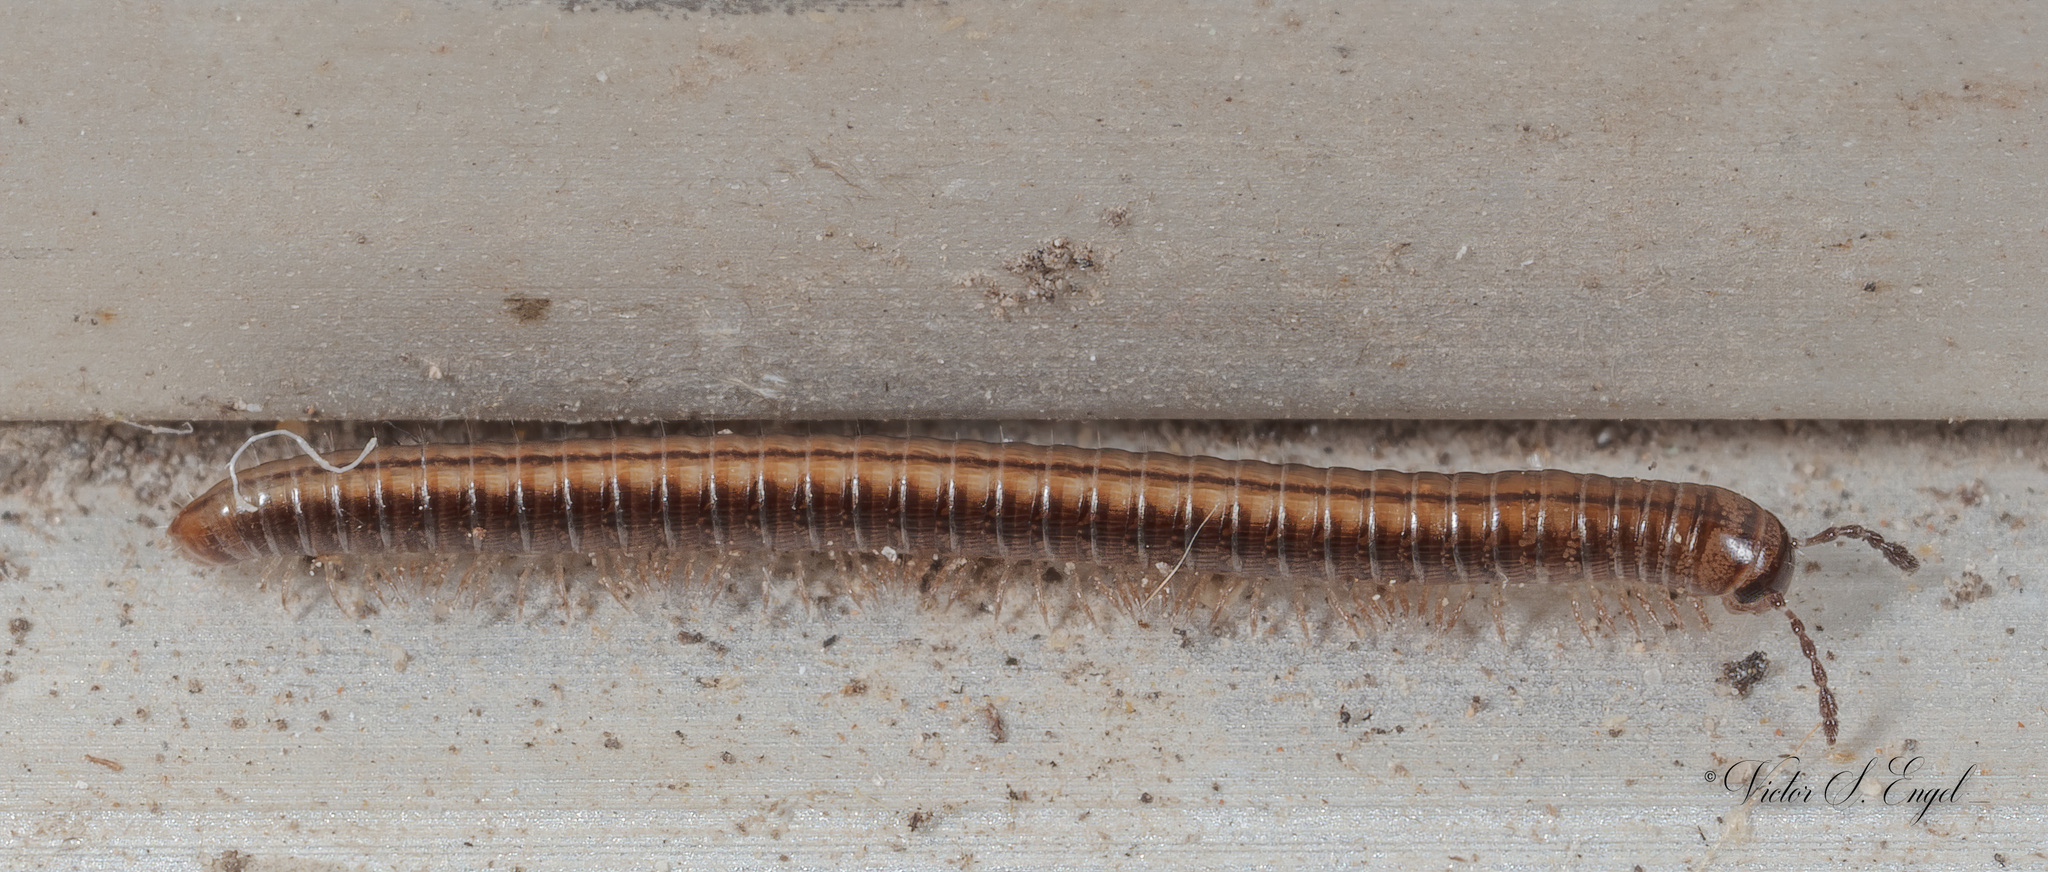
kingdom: Animalia
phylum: Arthropoda
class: Diplopoda
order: Julida
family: Julidae
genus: Brachyiulus
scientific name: Brachyiulus
